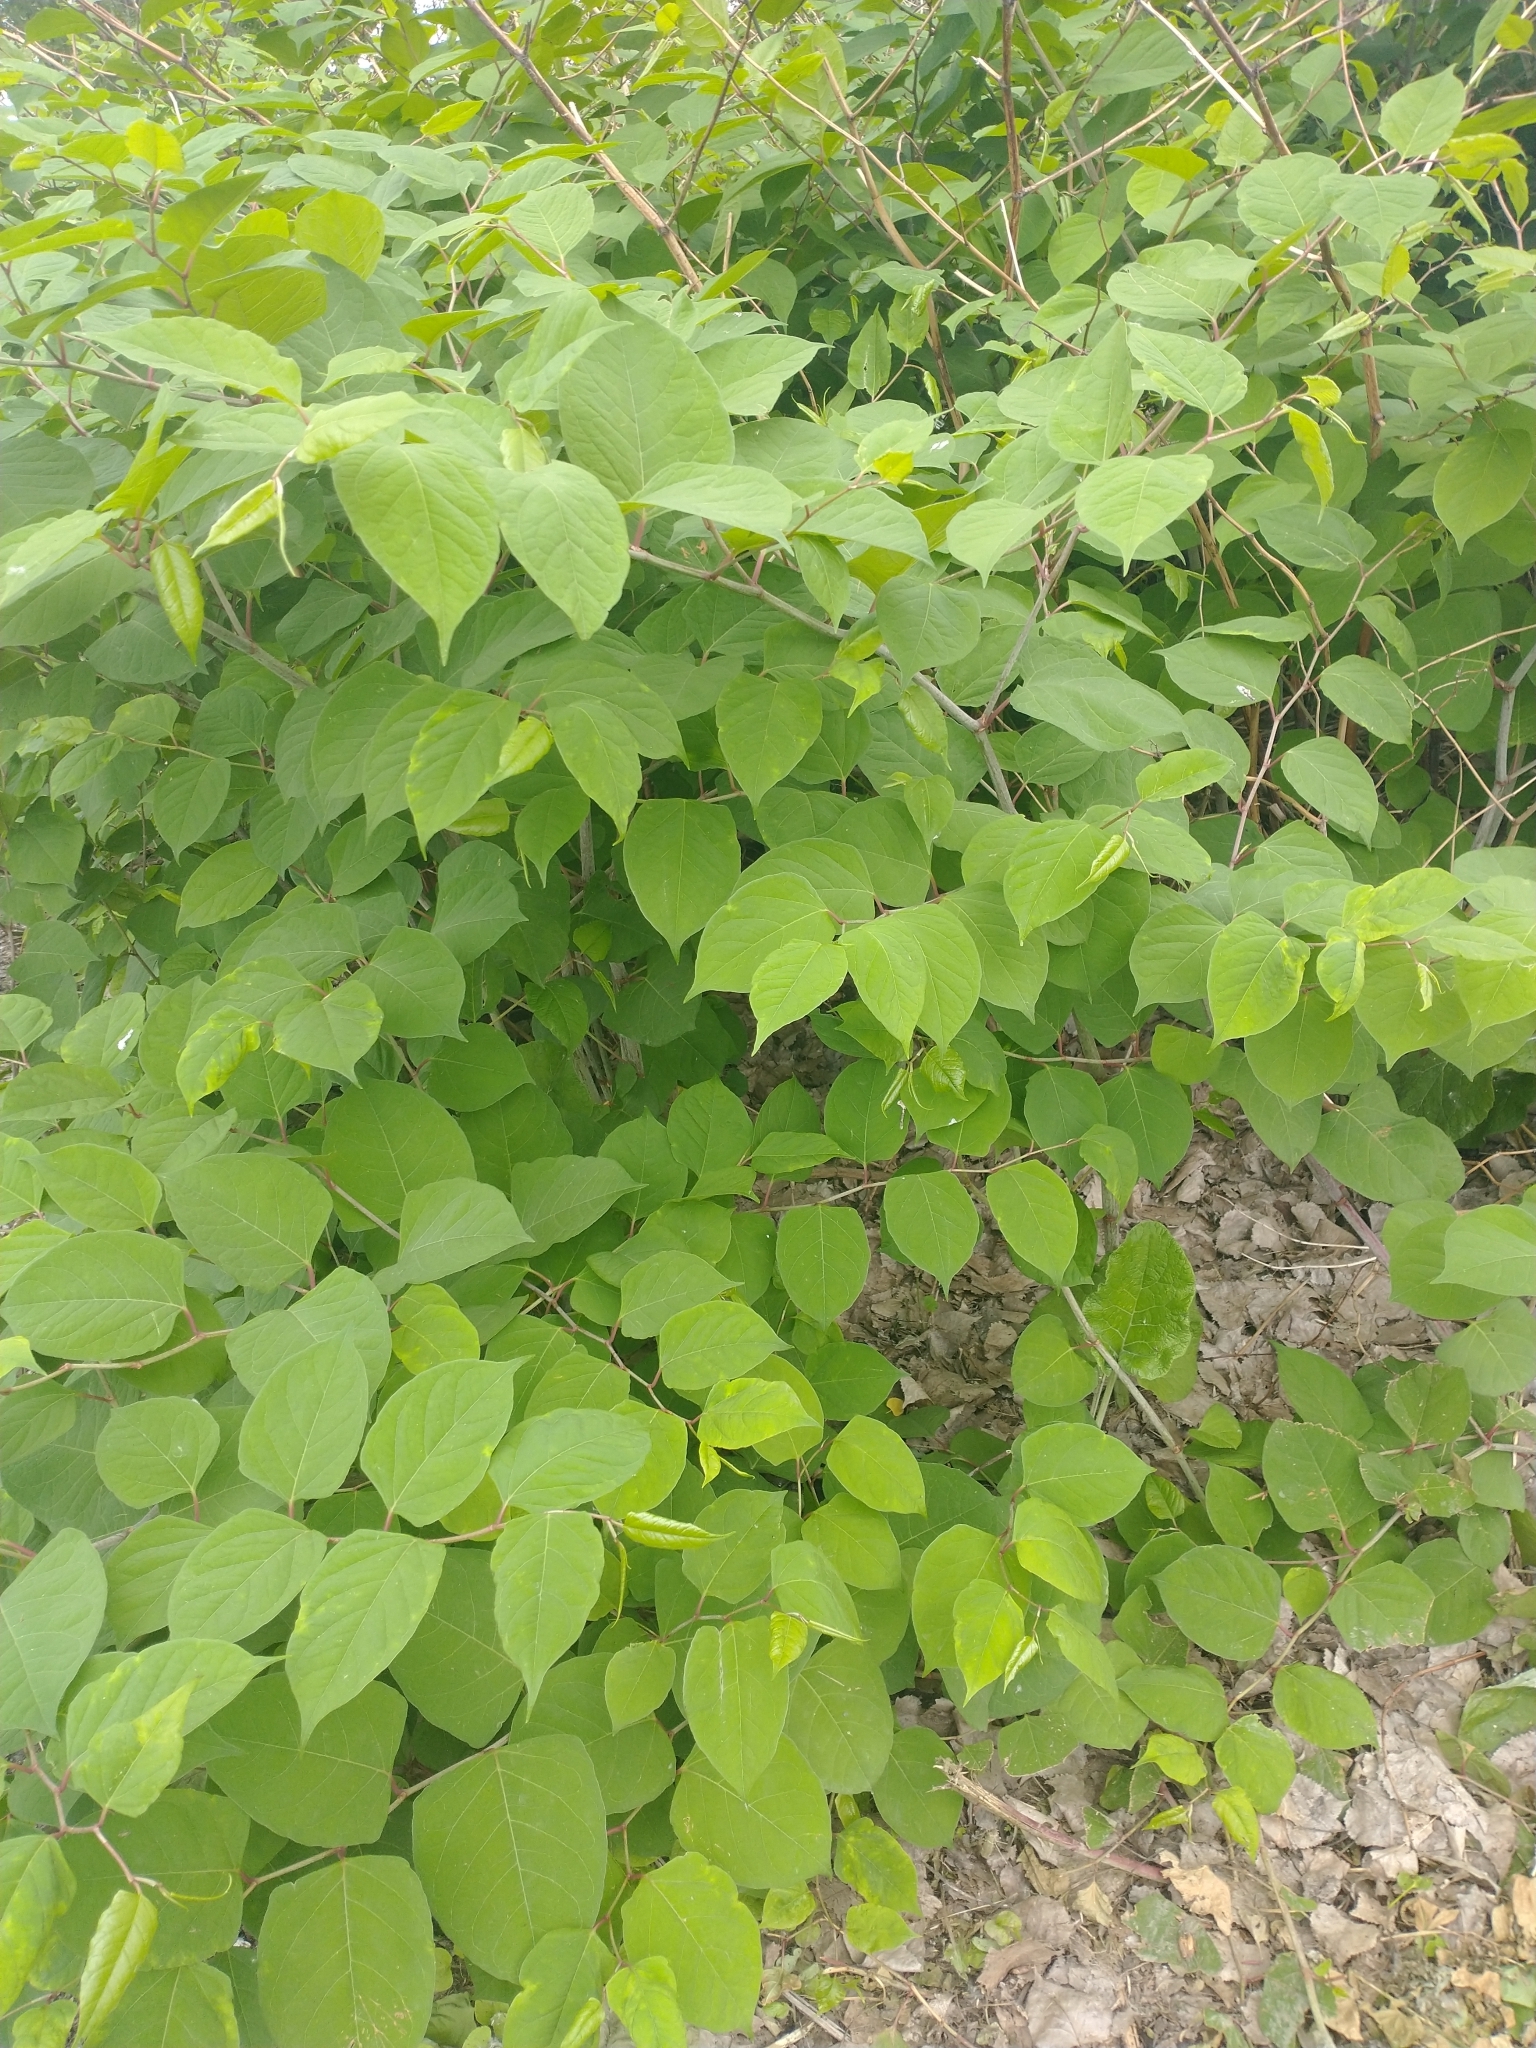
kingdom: Plantae
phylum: Tracheophyta
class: Magnoliopsida
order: Caryophyllales
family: Polygonaceae
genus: Reynoutria
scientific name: Reynoutria japonica
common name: Japanese knotweed
